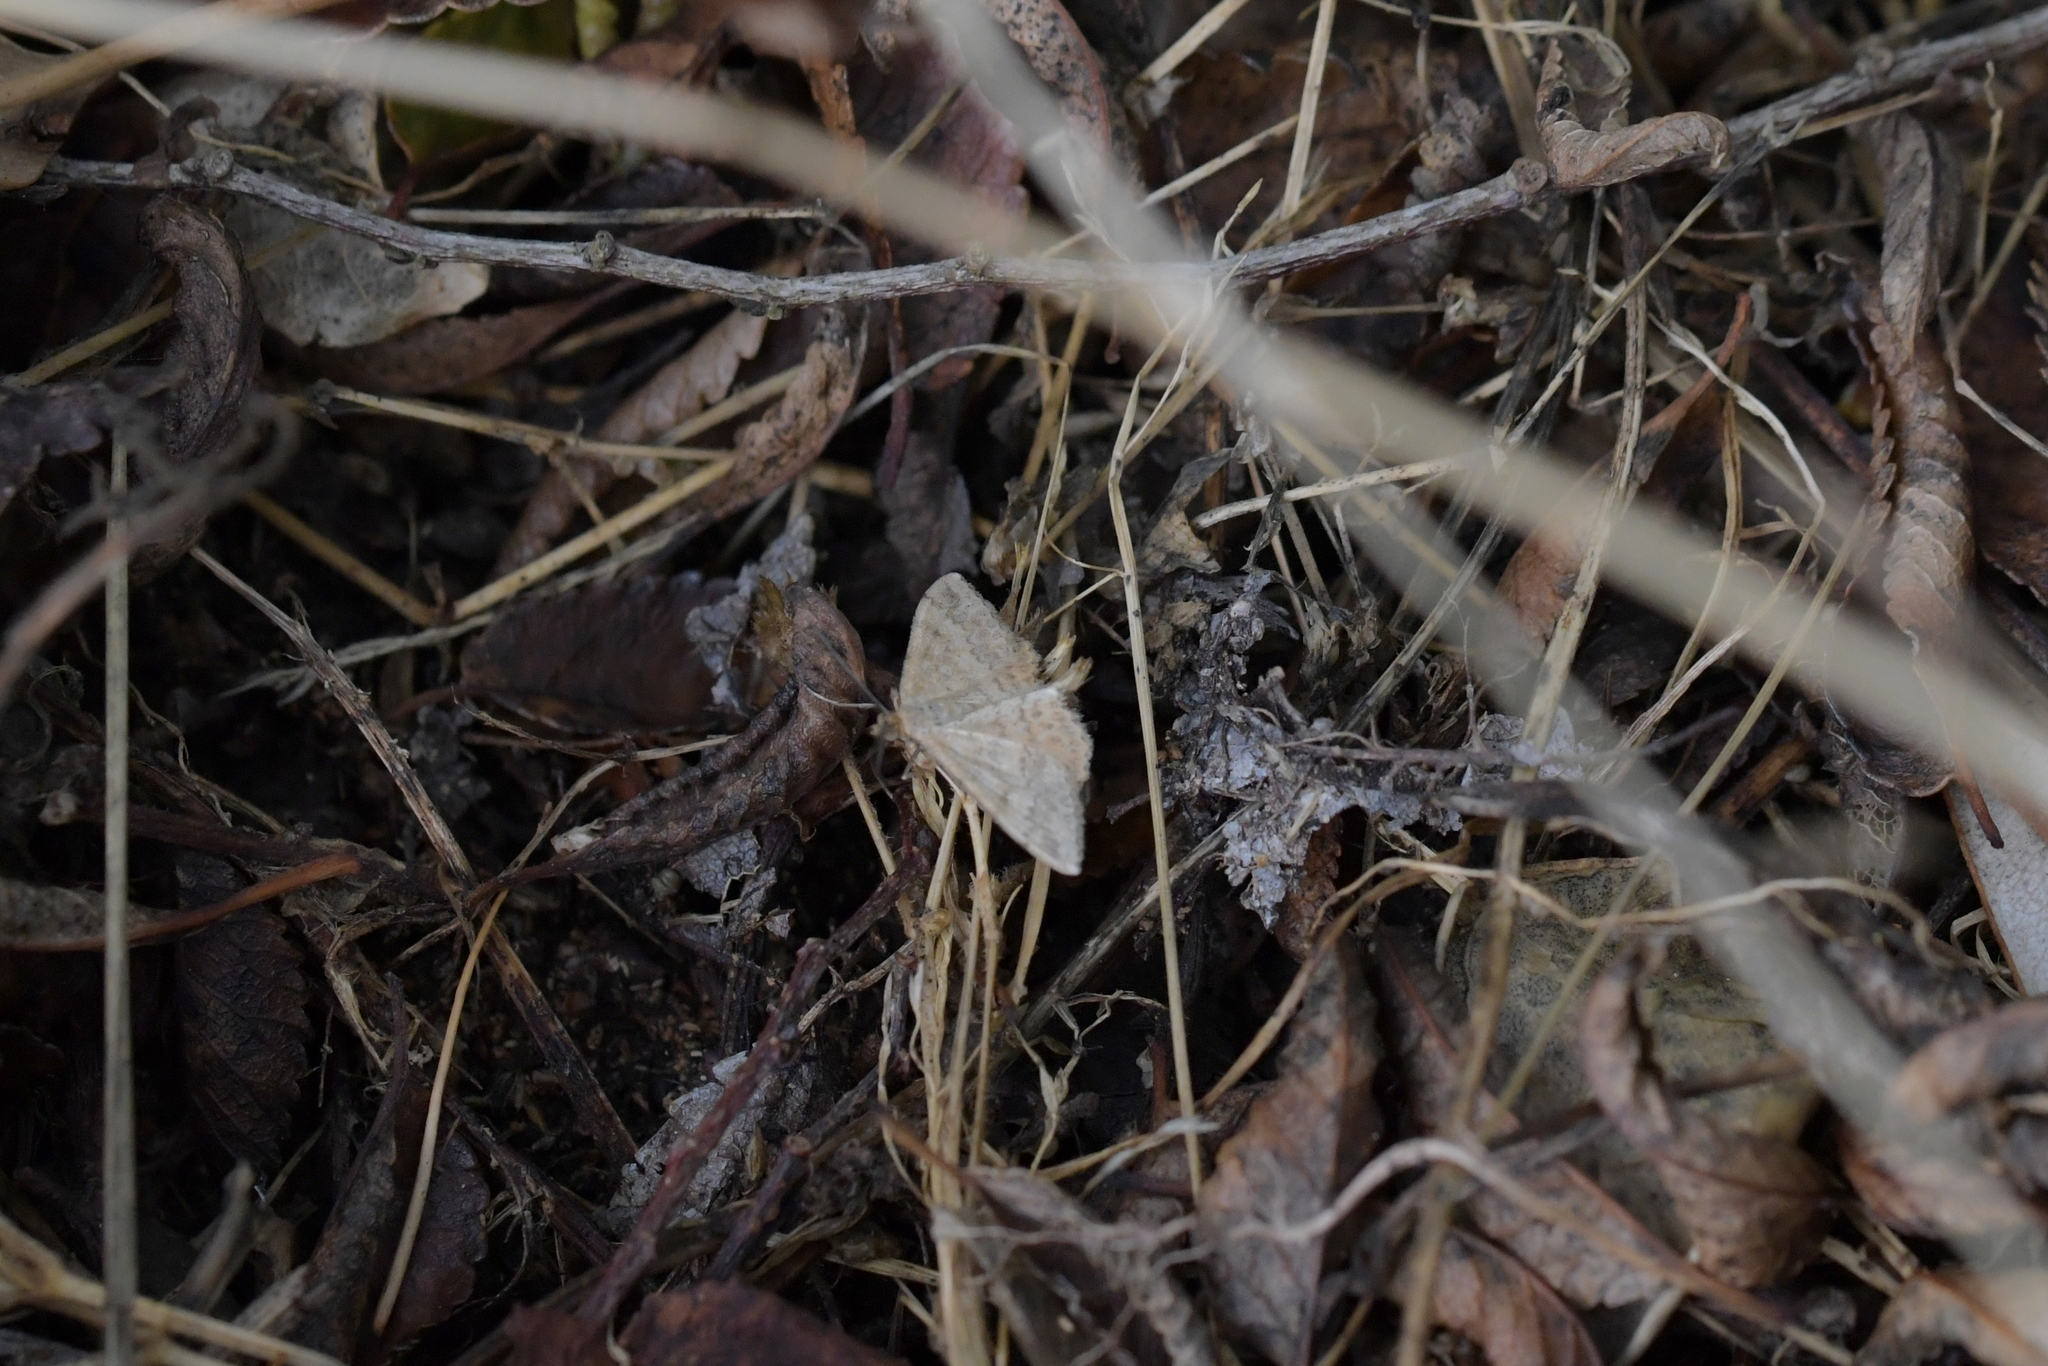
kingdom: Animalia
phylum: Arthropoda
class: Insecta
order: Lepidoptera
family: Geometridae
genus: Scopula
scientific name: Scopula rubraria
